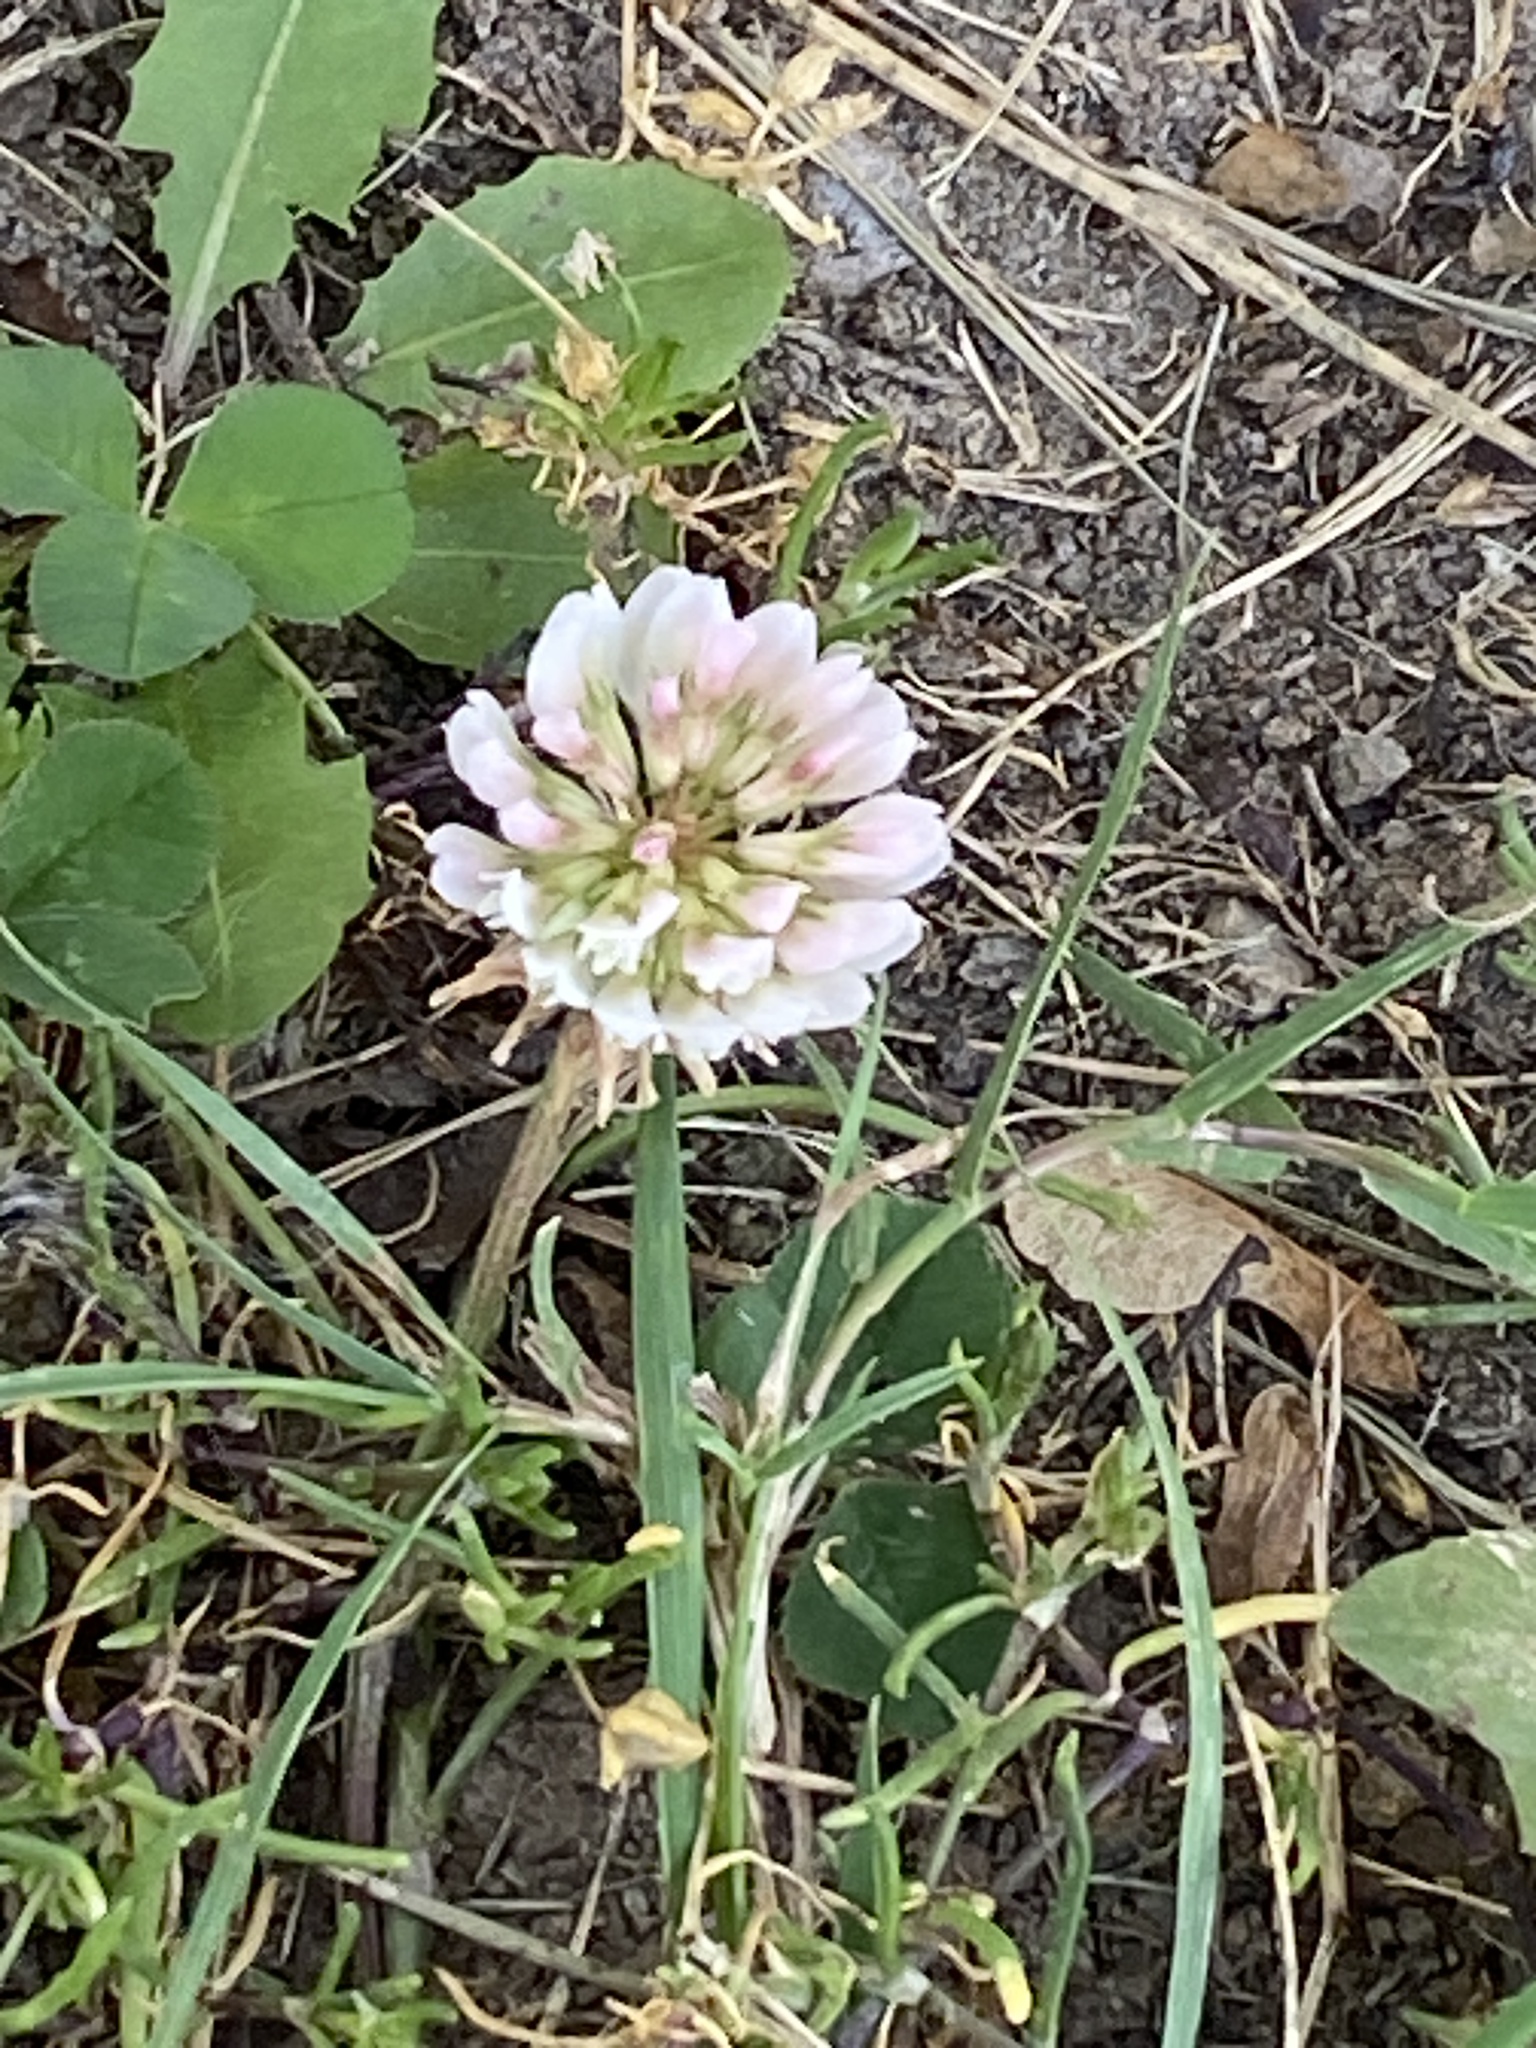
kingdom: Plantae
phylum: Tracheophyta
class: Magnoliopsida
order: Fabales
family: Fabaceae
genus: Trifolium
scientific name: Trifolium repens
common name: White clover
